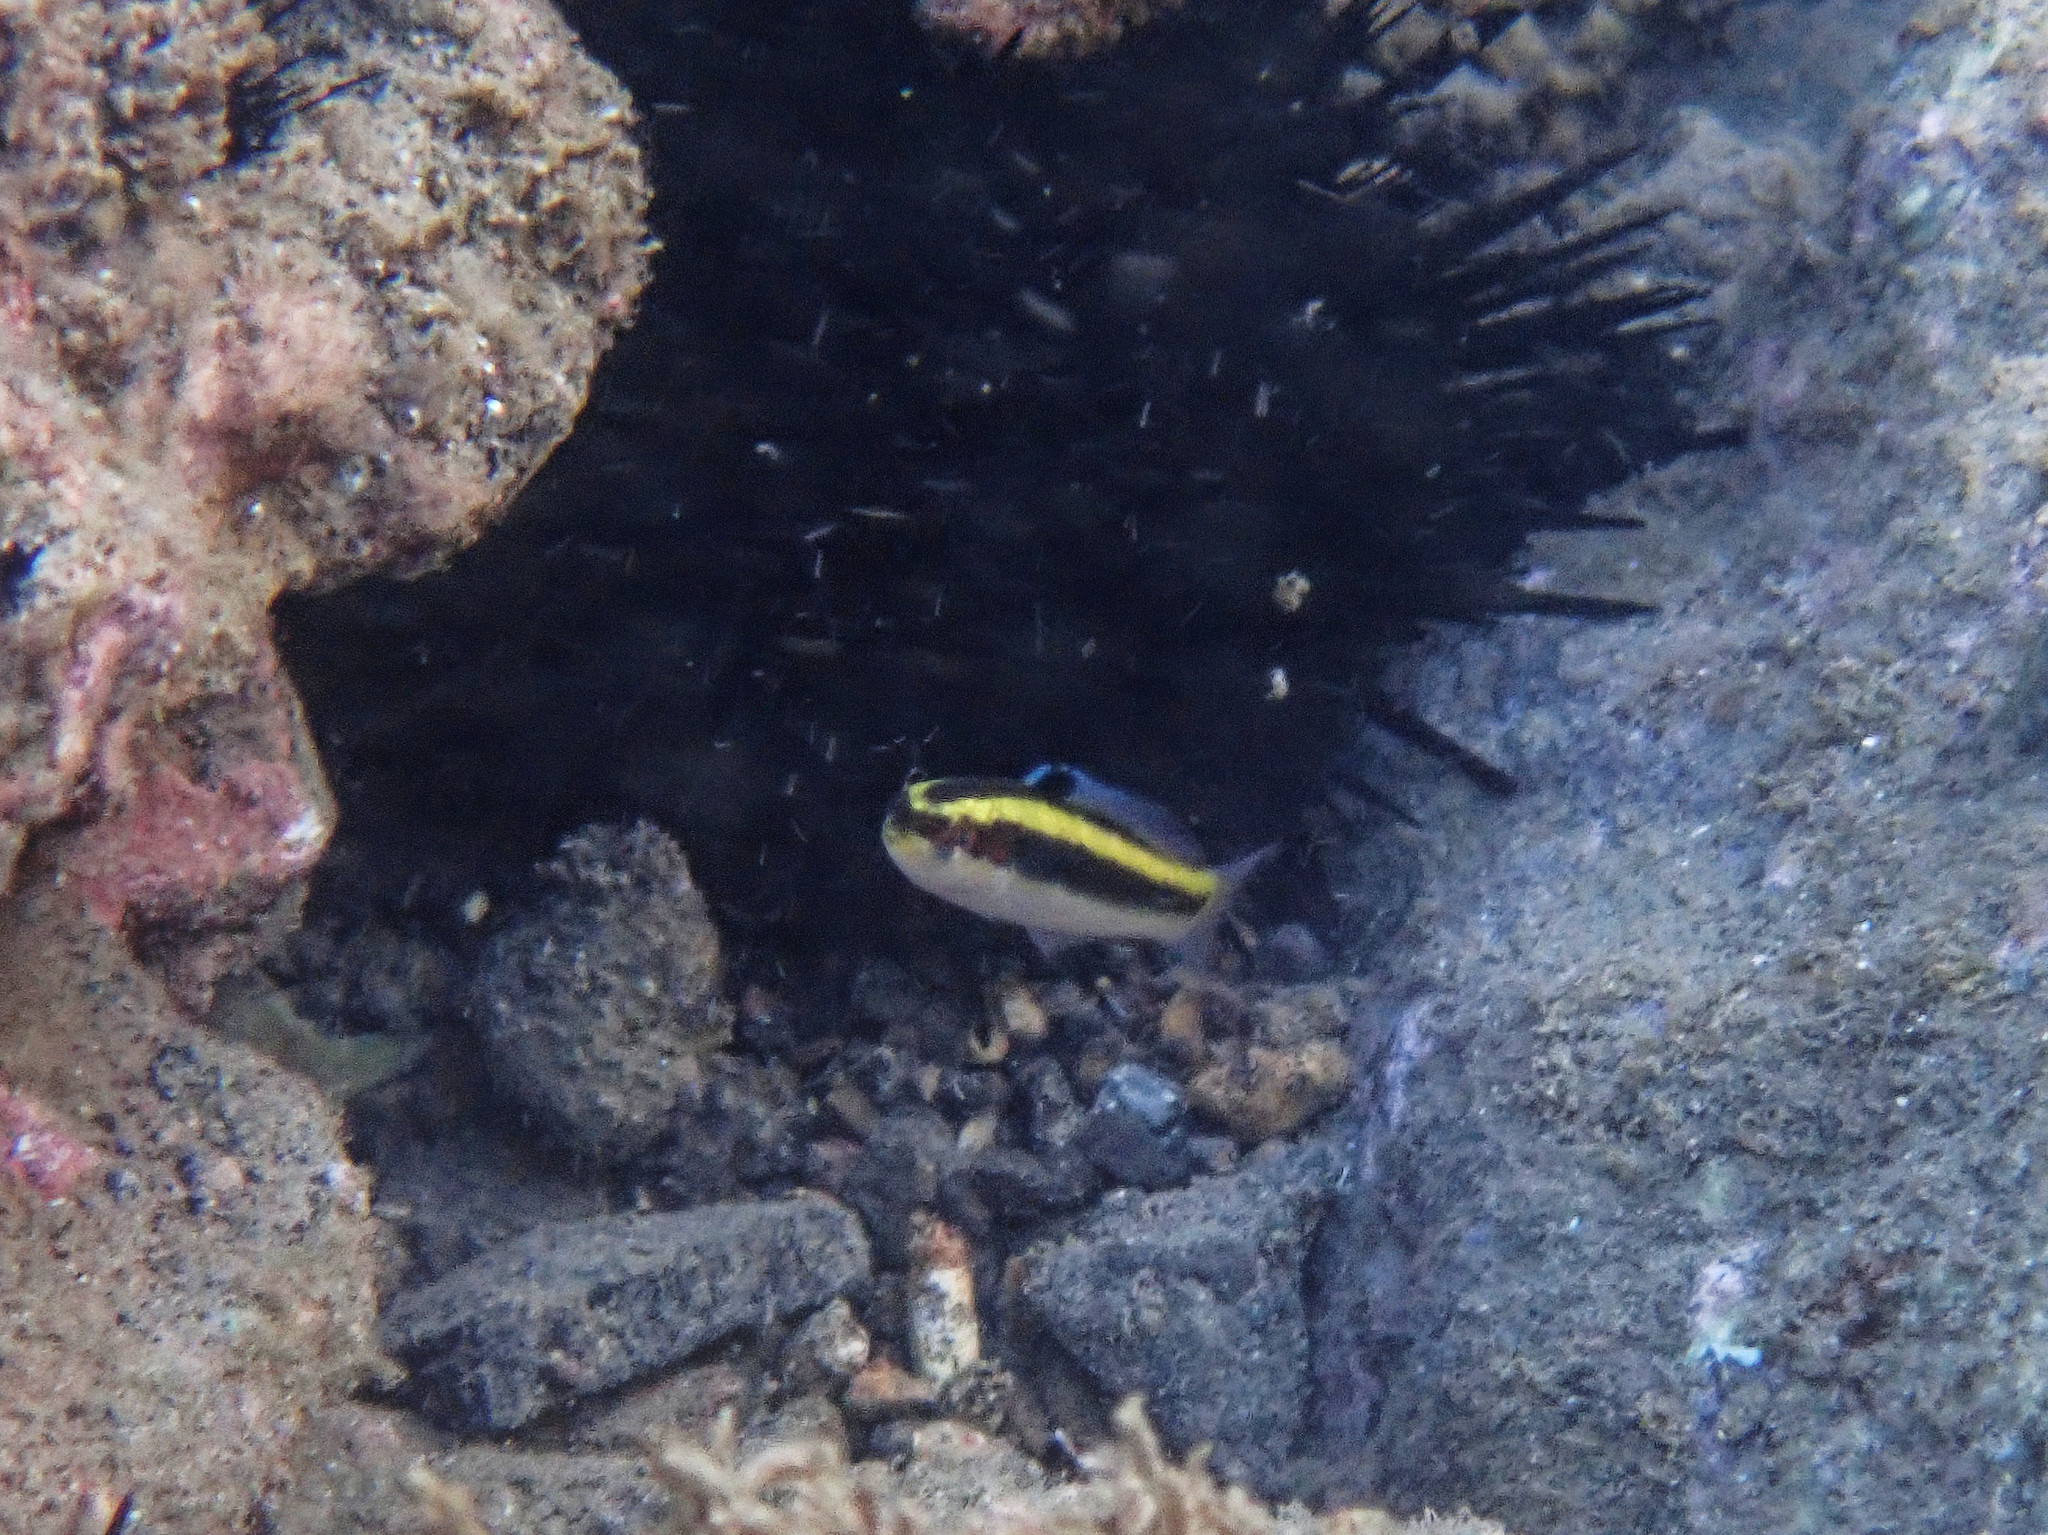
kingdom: Animalia
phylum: Chordata
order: Perciformes
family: Labridae
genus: Thalassoma
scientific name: Thalassoma bifasciatum
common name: Bluehead wrasse
